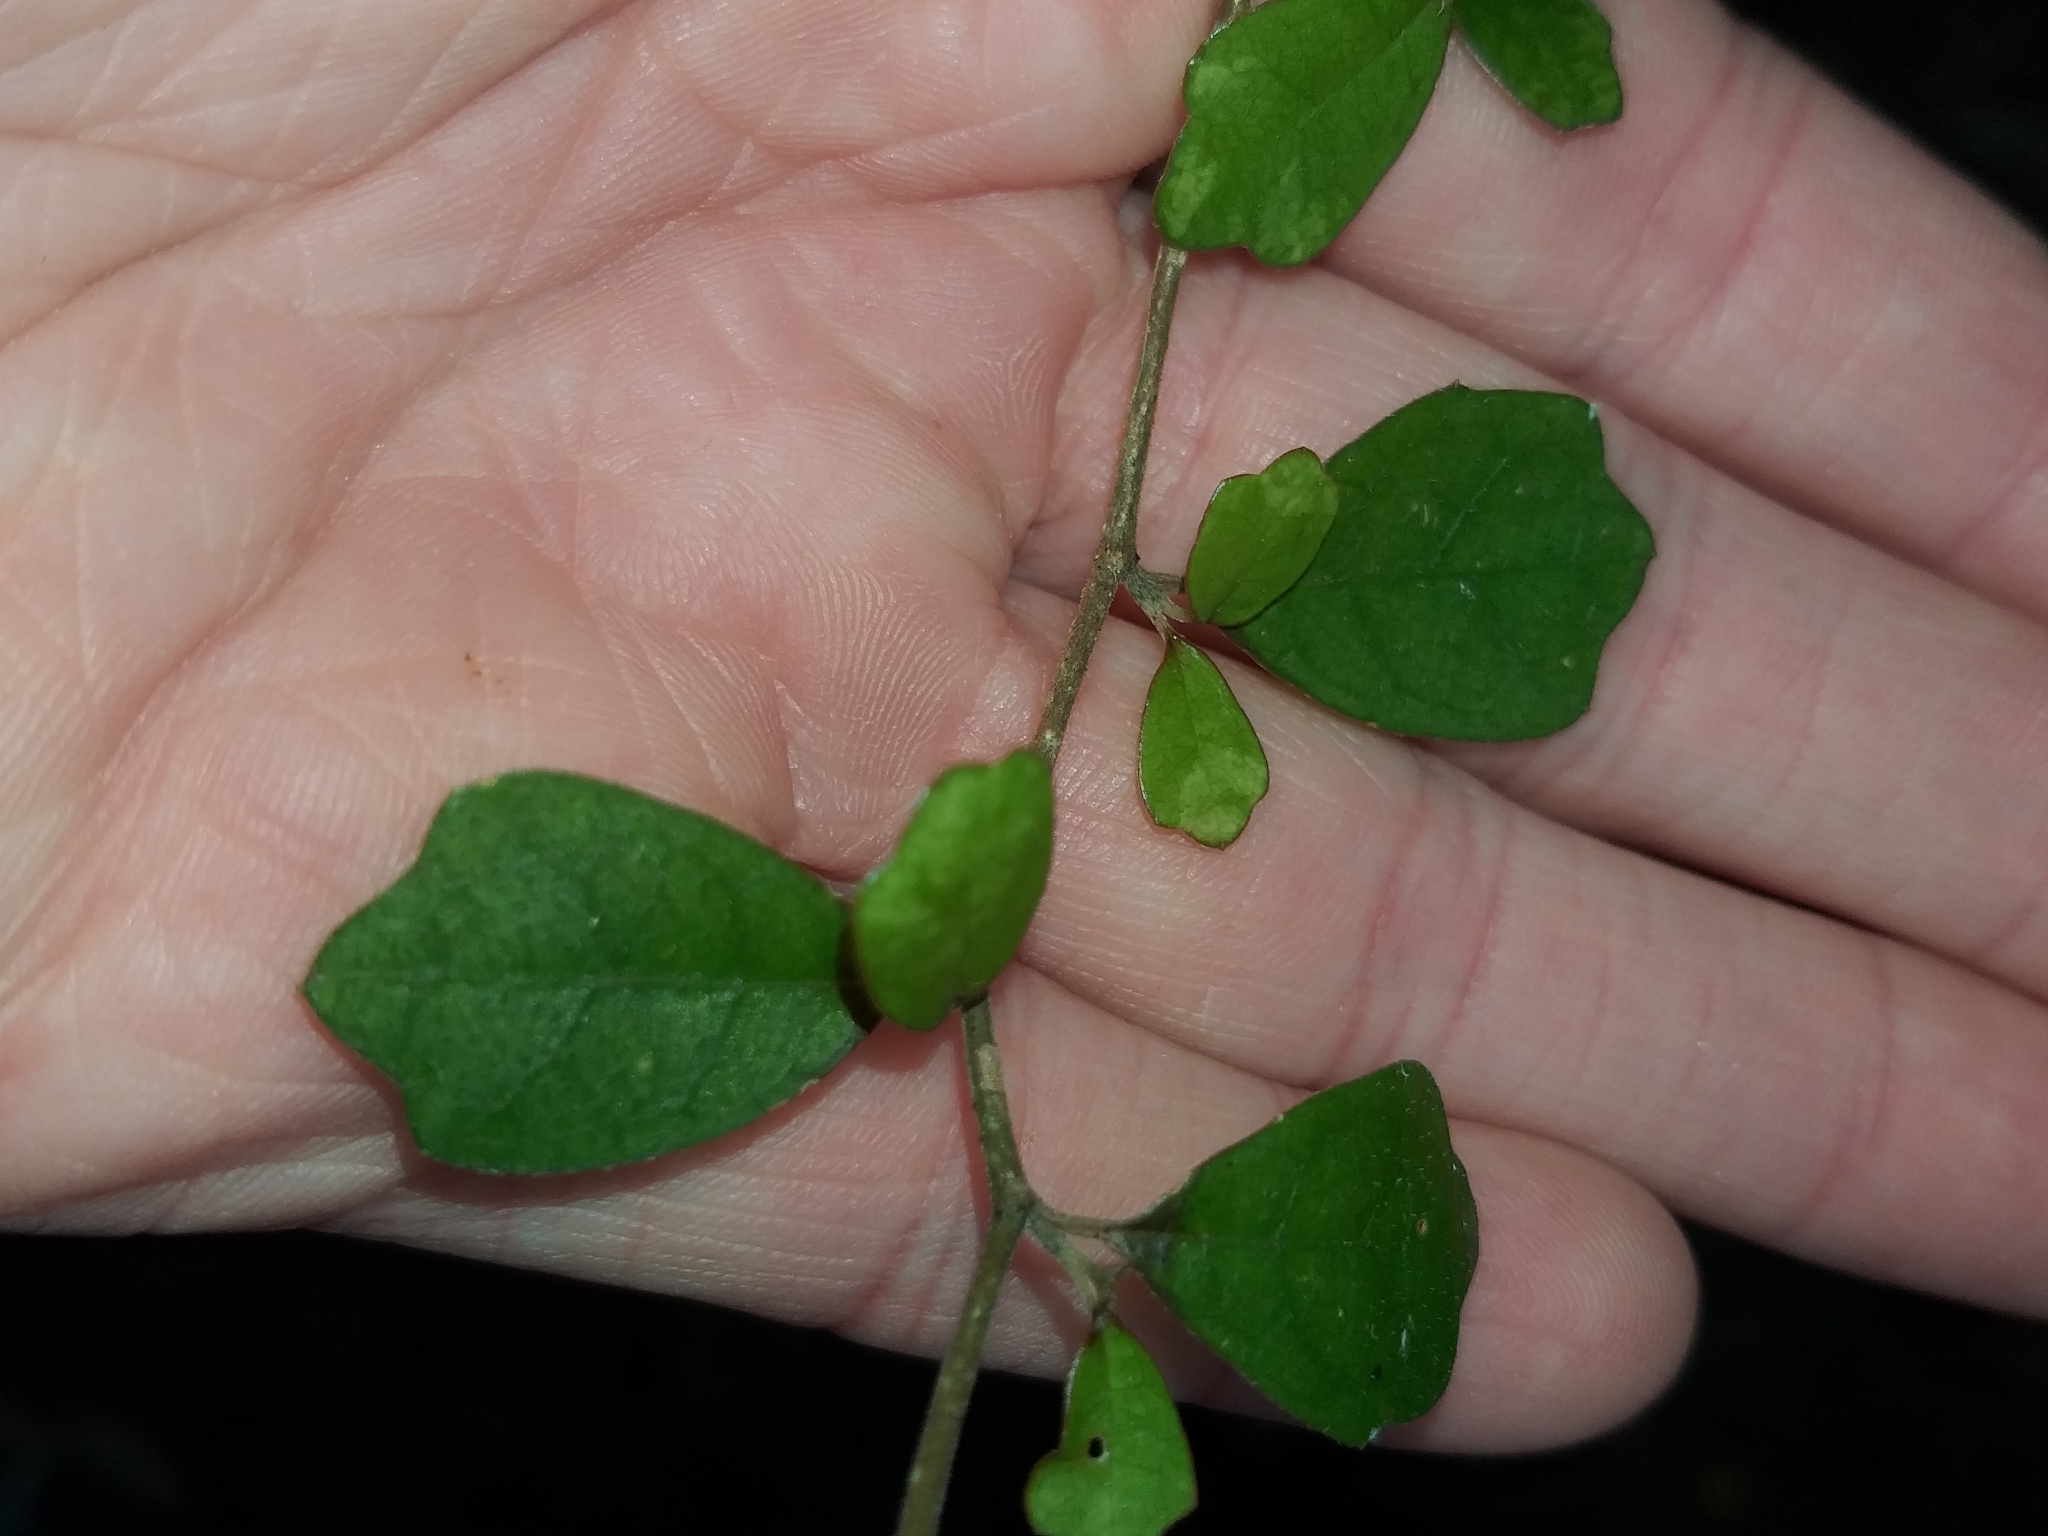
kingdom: Plantae
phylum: Tracheophyta
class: Magnoliopsida
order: Apiales
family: Pennantiaceae
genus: Pennantia
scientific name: Pennantia corymbosa
